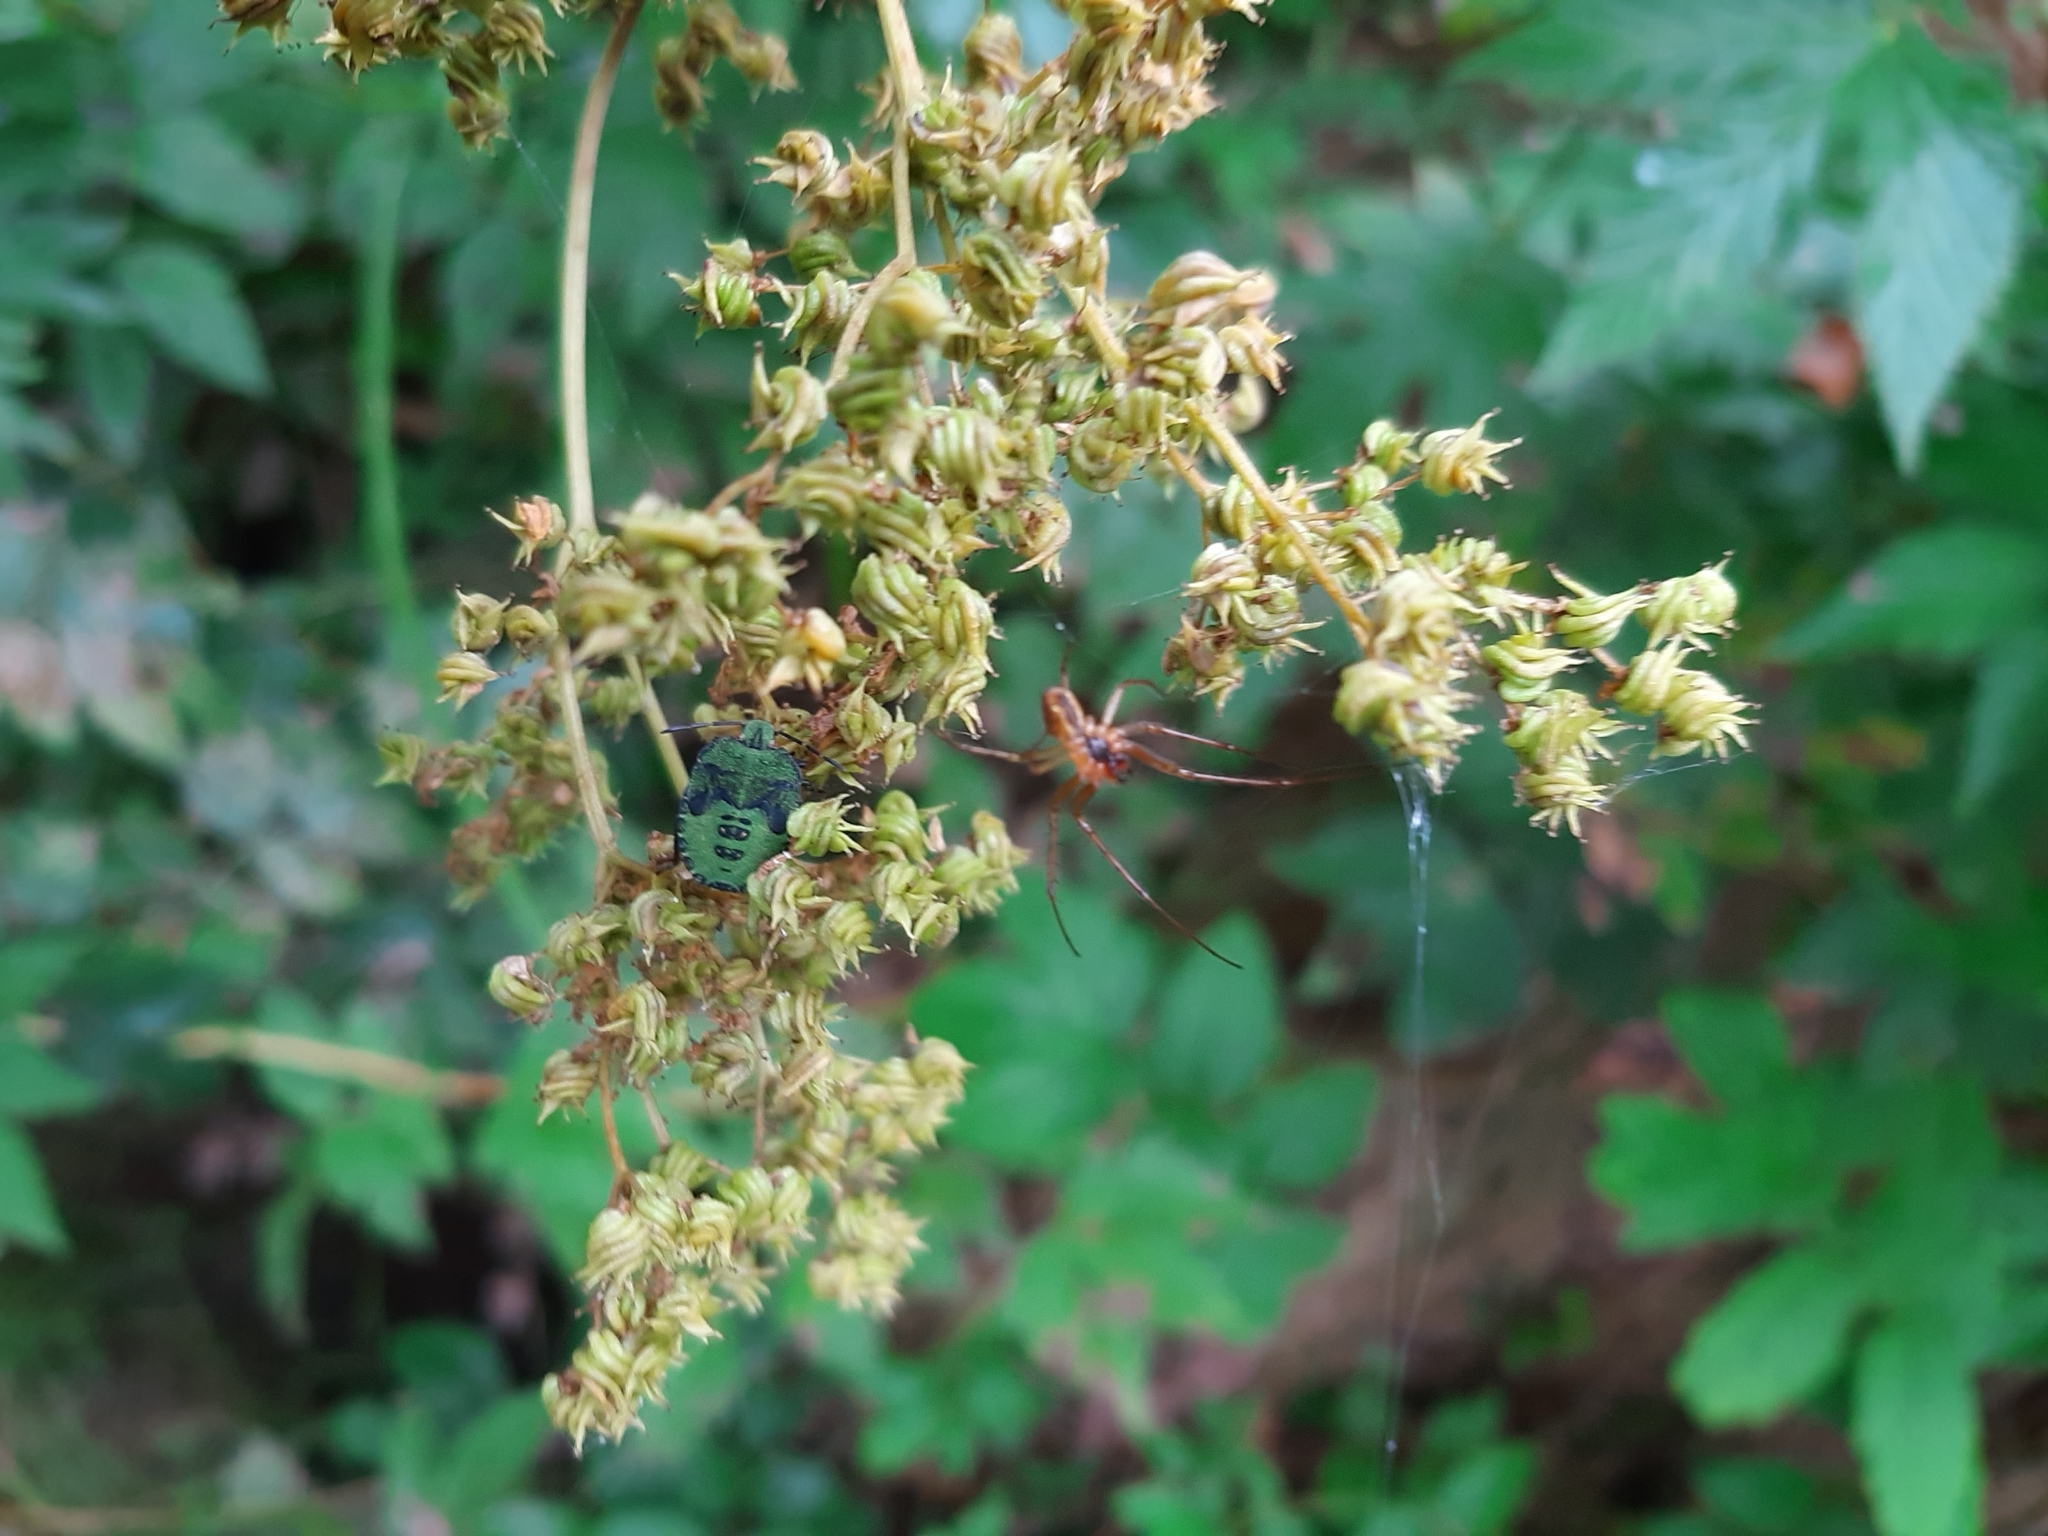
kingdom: Animalia
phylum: Arthropoda
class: Insecta
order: Hemiptera
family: Pentatomidae
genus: Palomena
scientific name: Palomena prasina
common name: Green shieldbug
